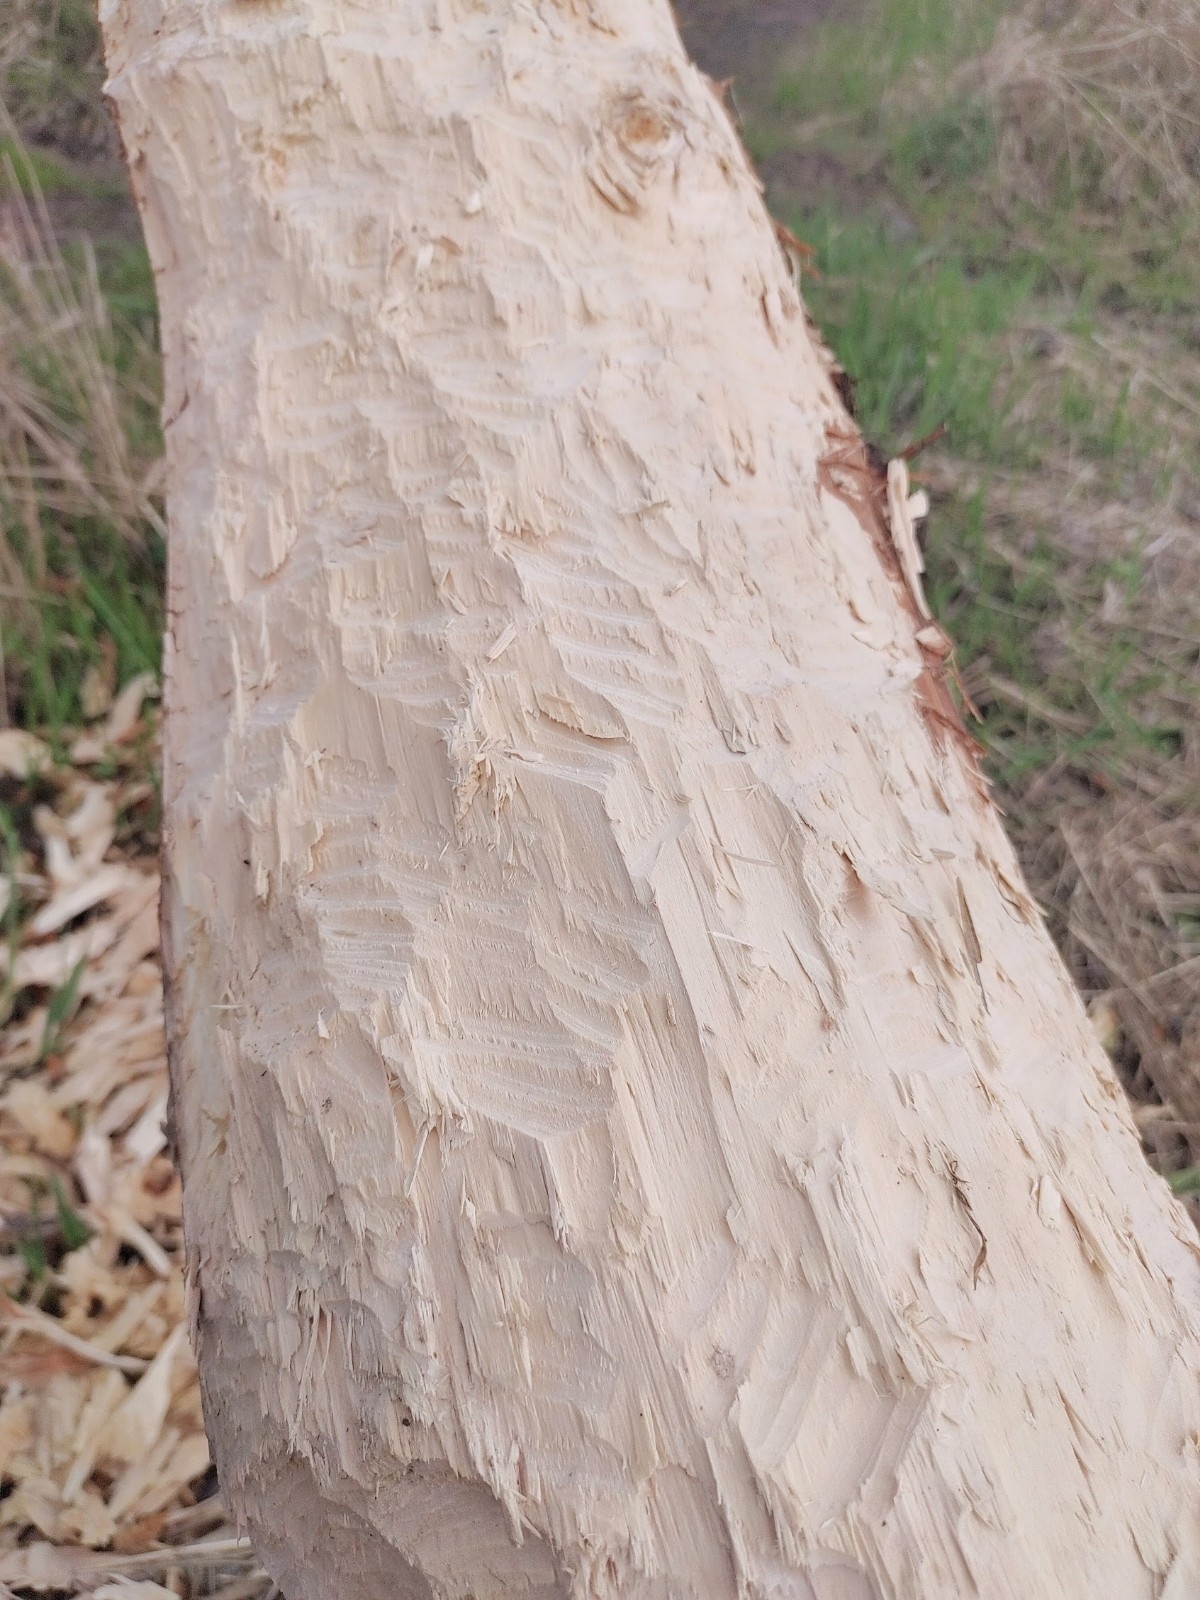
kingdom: Animalia
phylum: Chordata
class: Mammalia
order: Rodentia
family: Castoridae
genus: Castor
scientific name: Castor fiber
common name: Eurasian beaver
